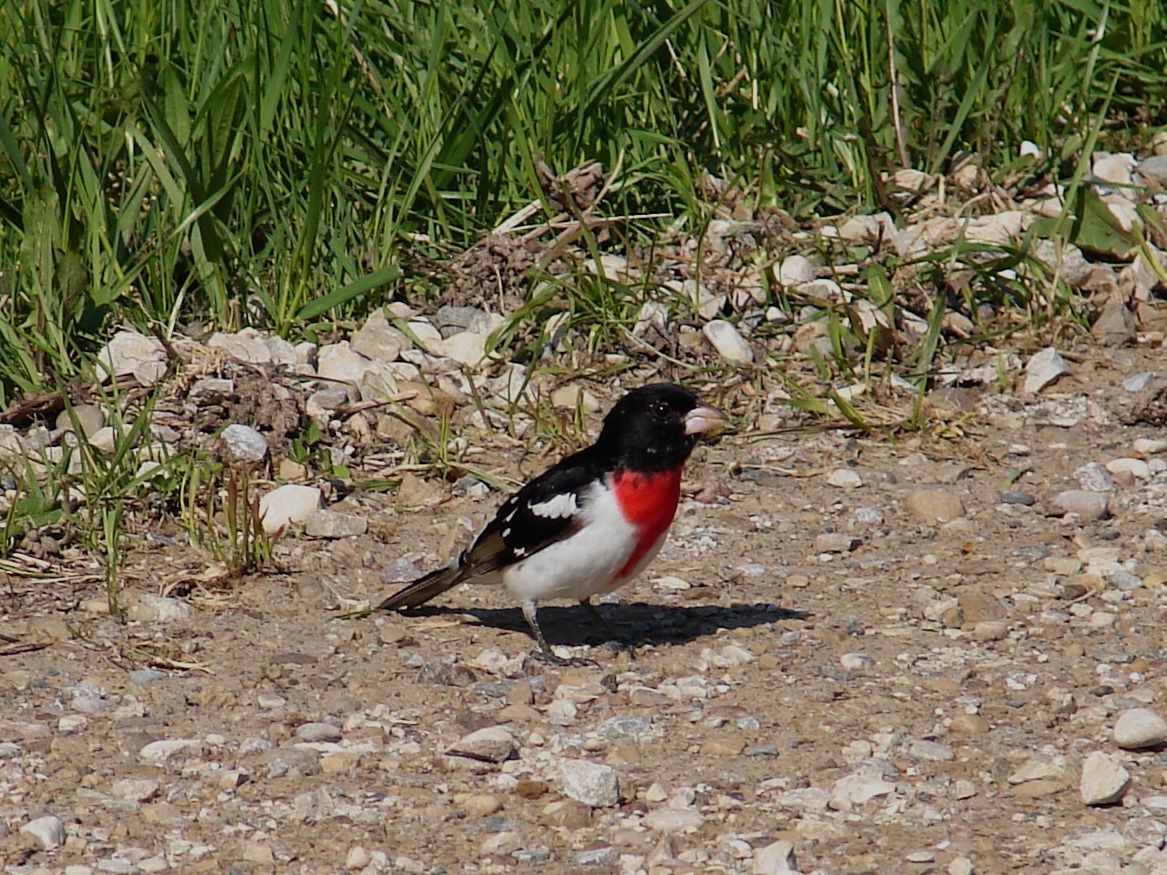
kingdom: Animalia
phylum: Chordata
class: Aves
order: Passeriformes
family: Cardinalidae
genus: Pheucticus
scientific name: Pheucticus ludovicianus
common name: Rose-breasted grosbeak
